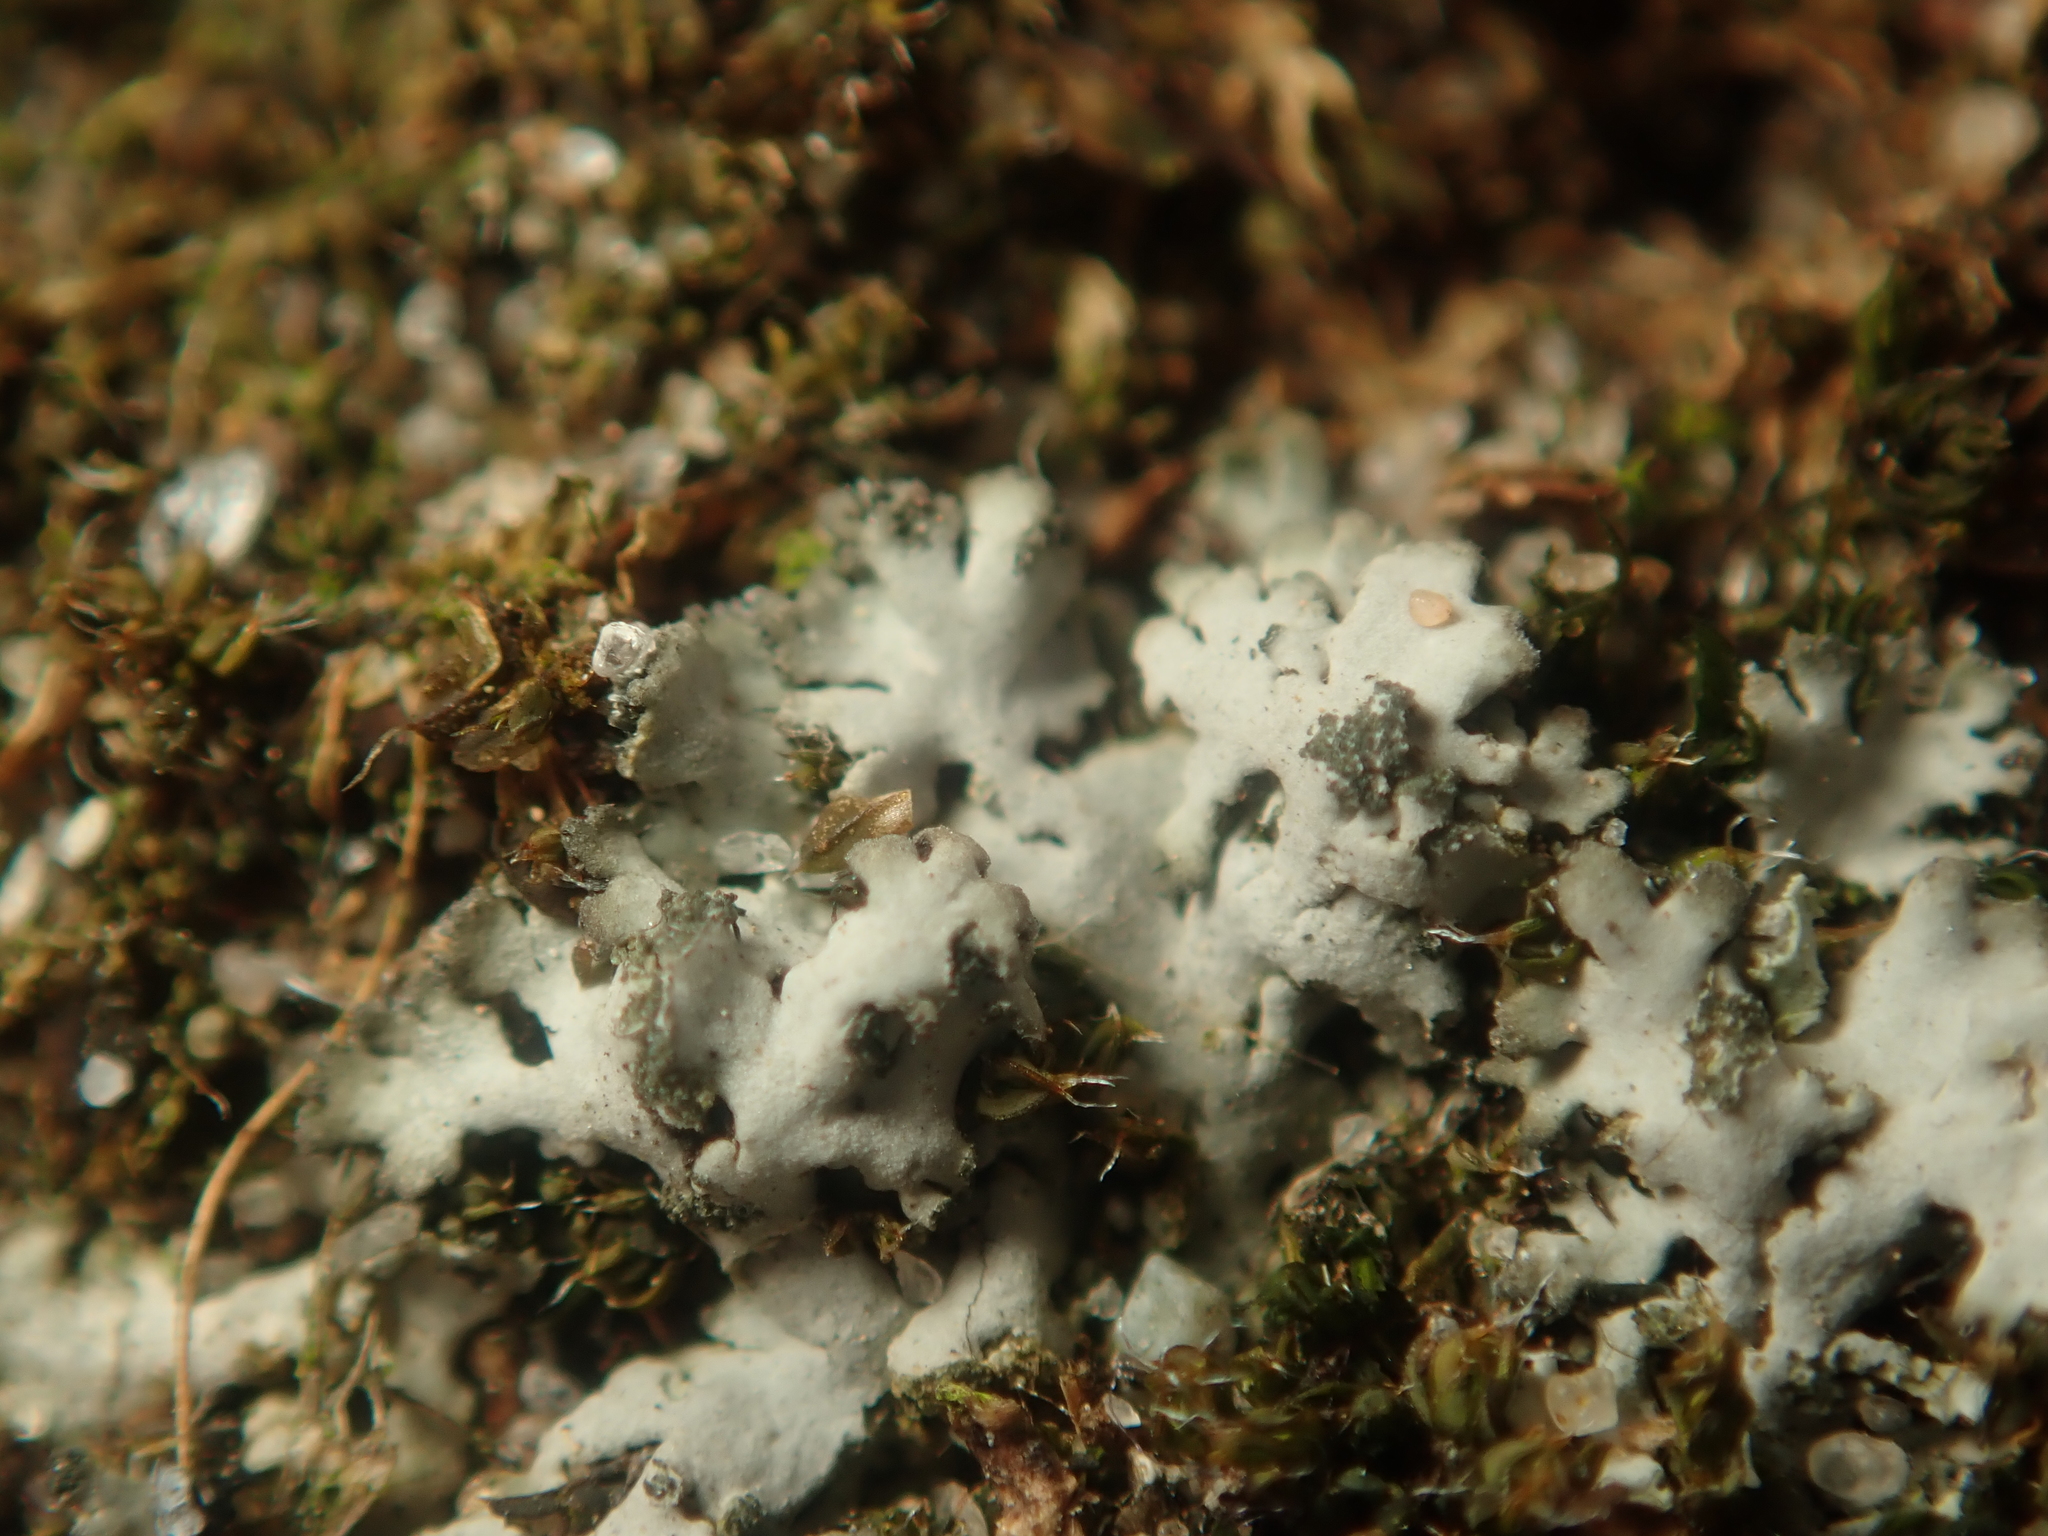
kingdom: Fungi
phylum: Ascomycota
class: Lecanoromycetes
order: Caliciales
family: Physciaceae
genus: Phaeophyscia
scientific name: Phaeophyscia orbicularis
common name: Mealy shadow lichen
